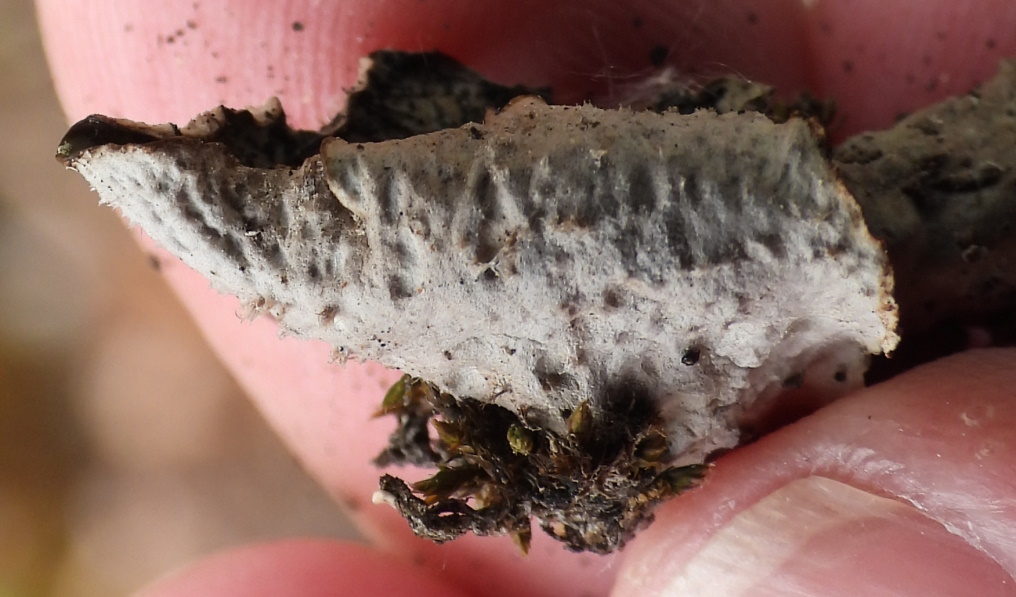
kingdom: Fungi
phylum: Ascomycota
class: Lecanoromycetes
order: Peltigerales
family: Peltigeraceae
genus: Peltigera
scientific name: Peltigera leucophlebia
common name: Ruffled freckle pelt lichen
